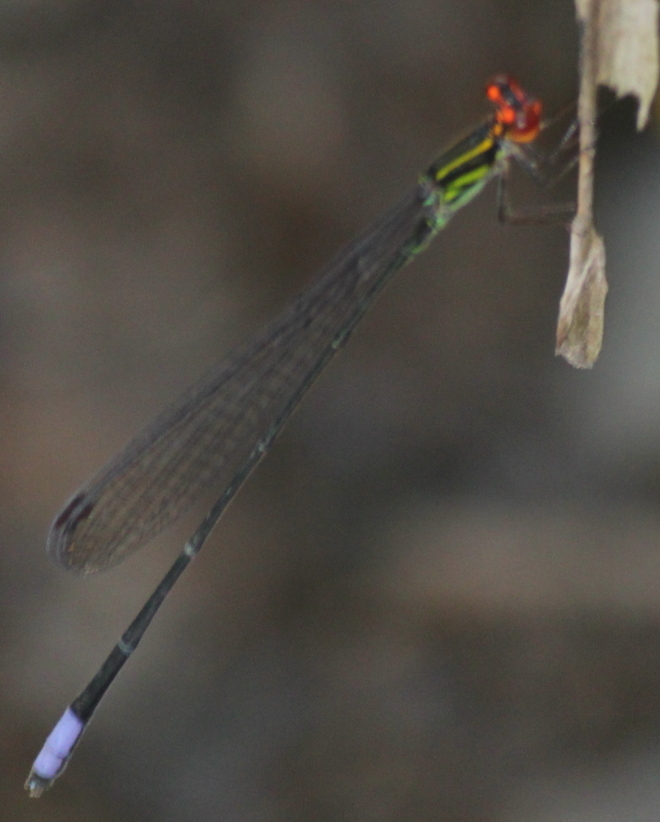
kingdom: Animalia
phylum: Arthropoda
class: Insecta
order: Odonata
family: Coenagrionidae
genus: Pseudagrion
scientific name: Pseudagrion hageni
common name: Painted sprite
